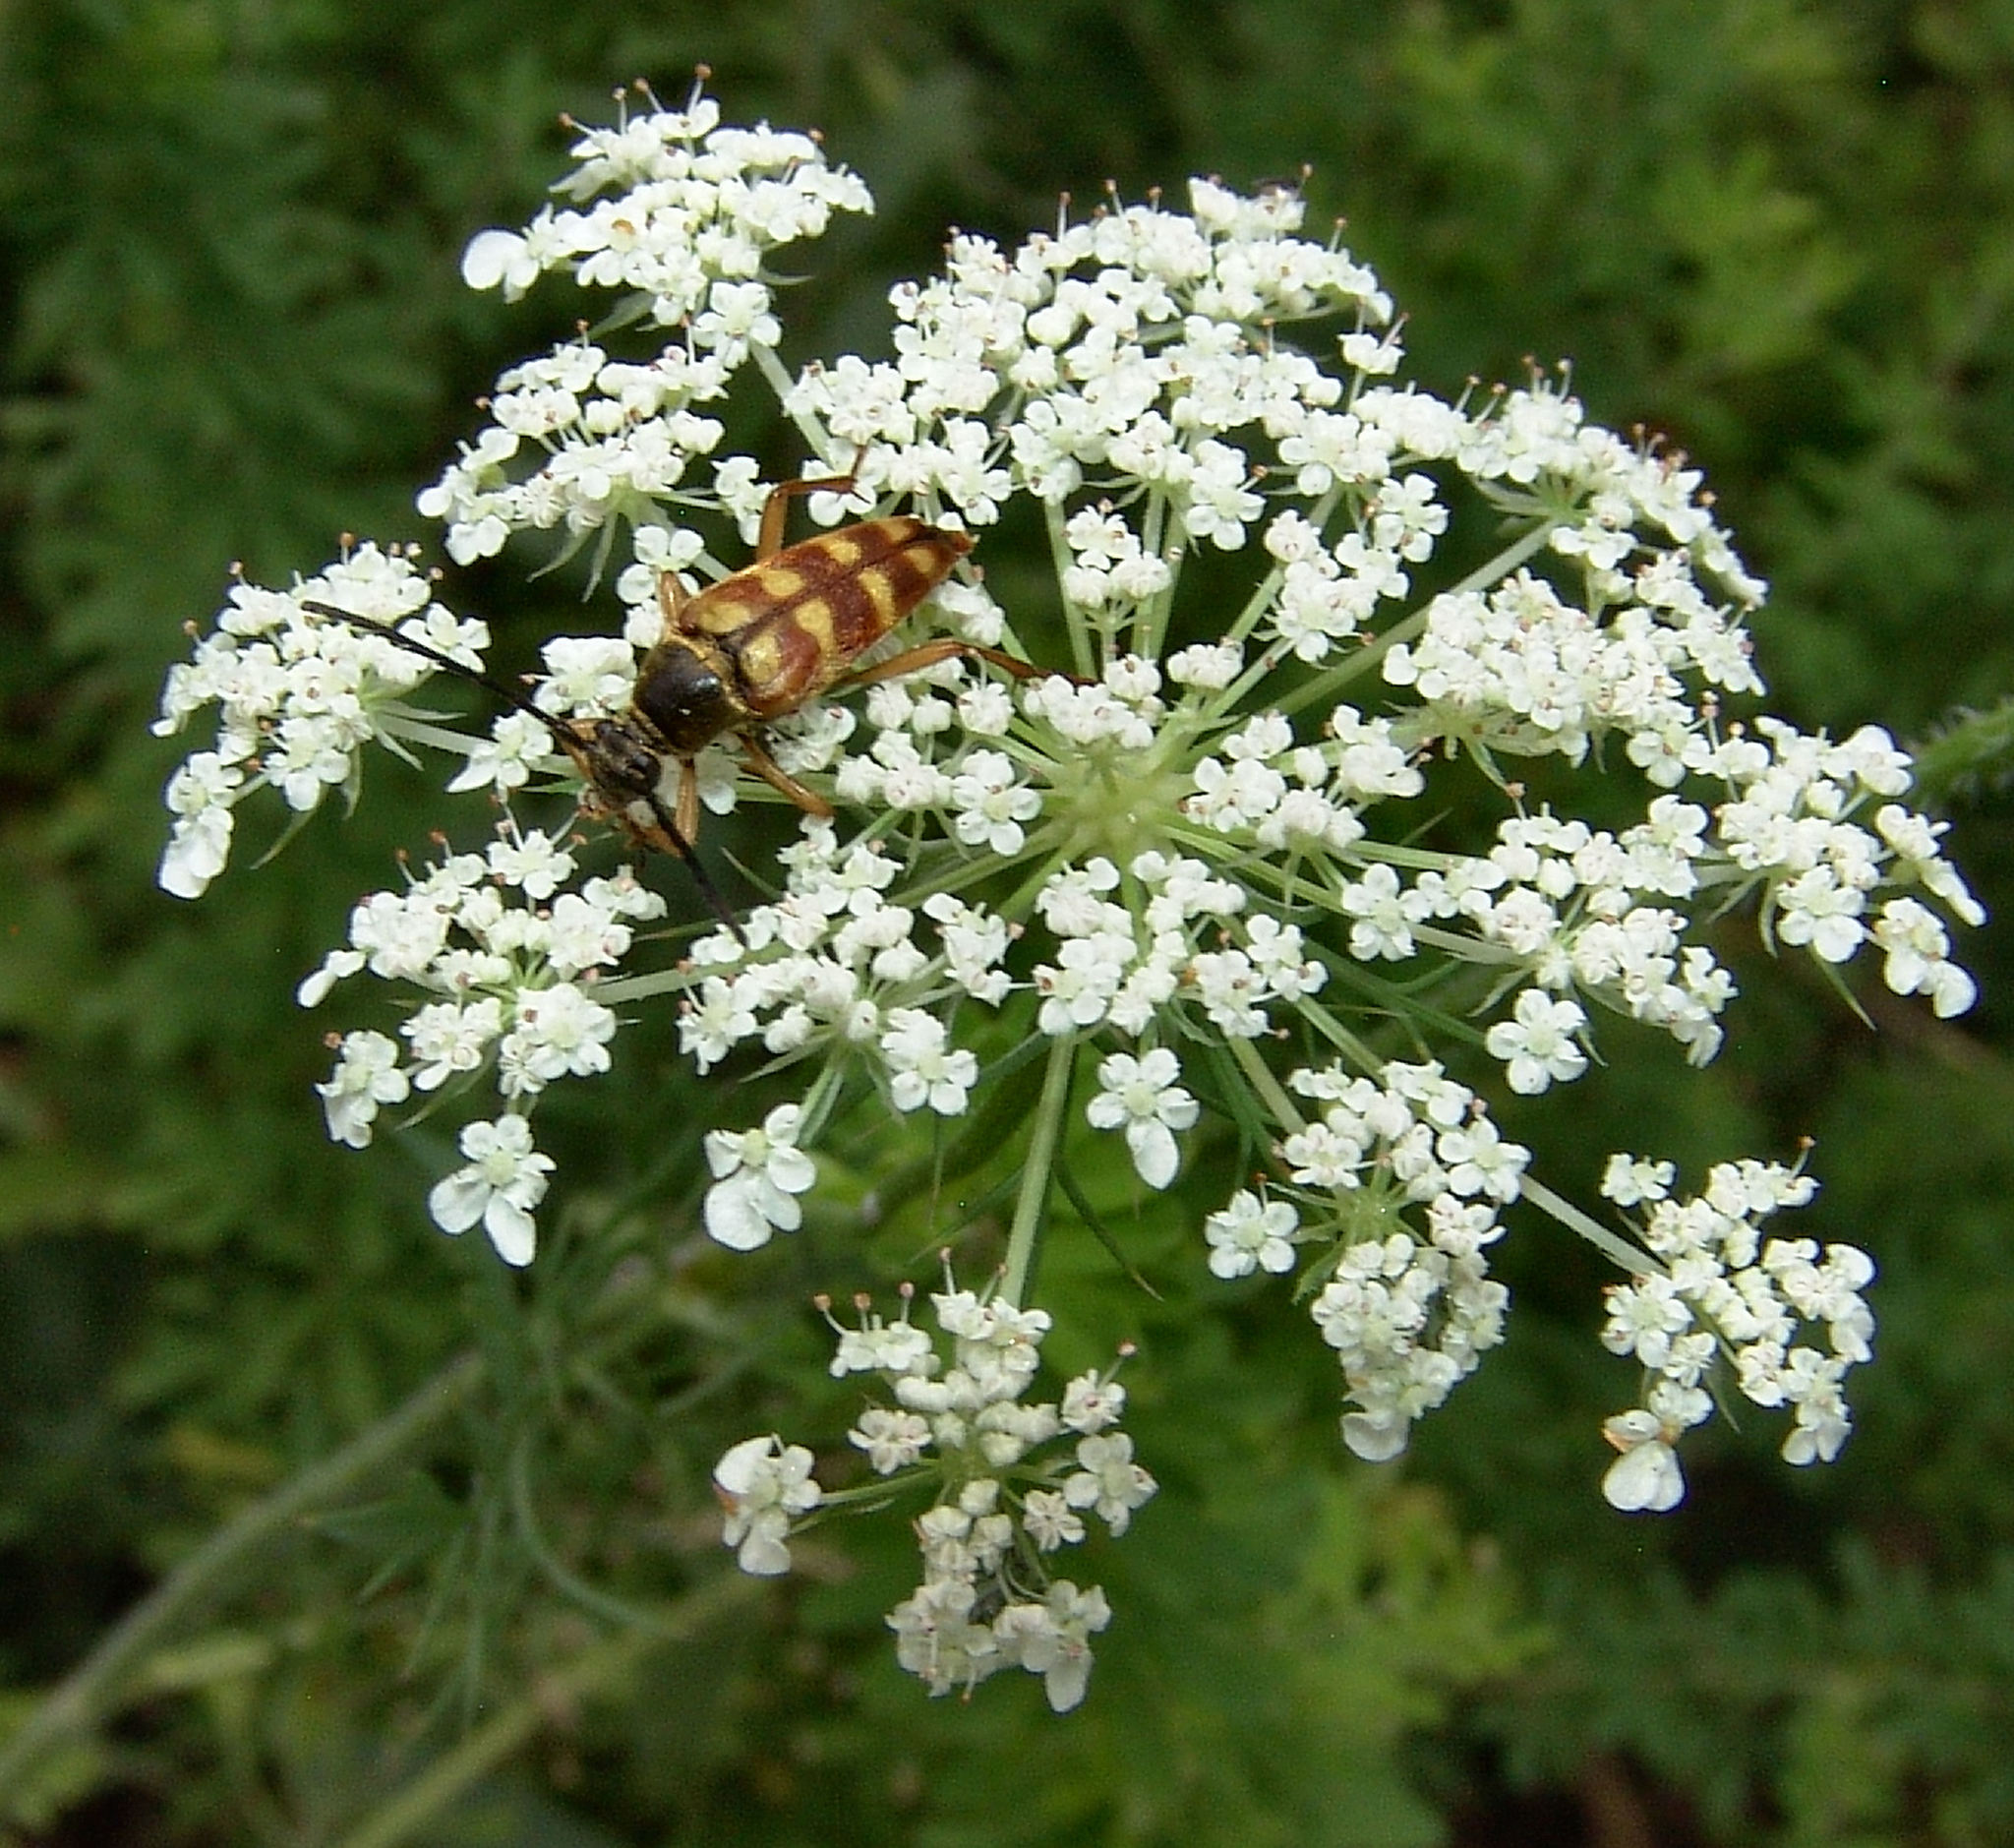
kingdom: Animalia
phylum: Arthropoda
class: Insecta
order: Coleoptera
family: Cerambycidae
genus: Typocerus
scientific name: Typocerus velutinus
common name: Banded longhorn beetle
